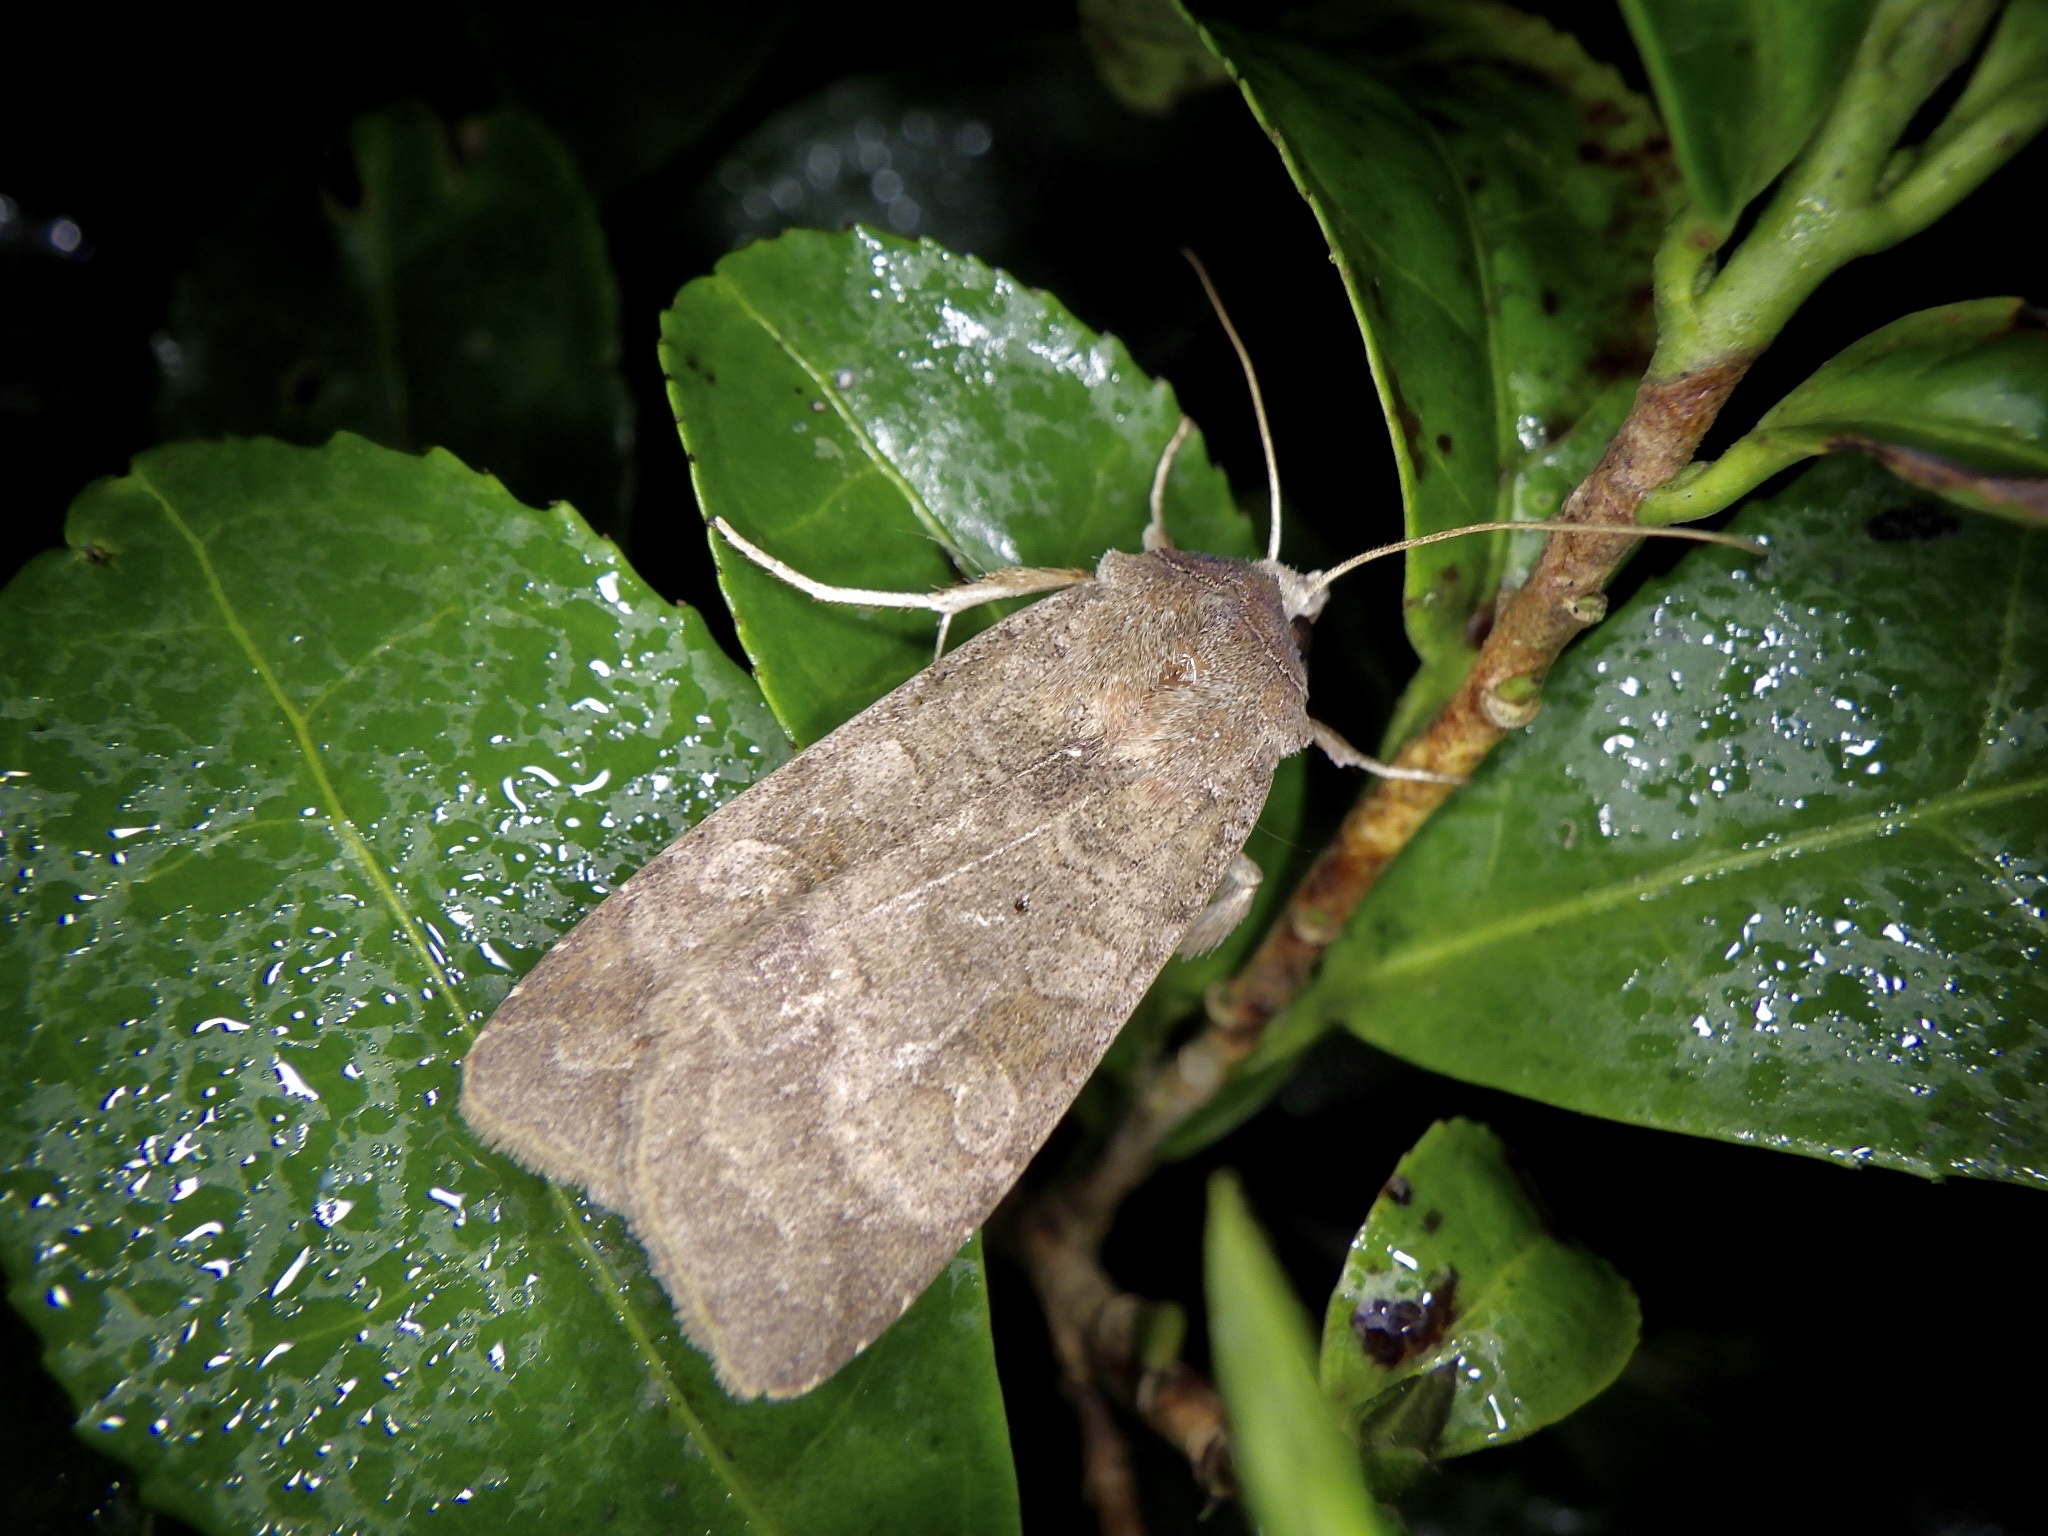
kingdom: Animalia
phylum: Arthropoda
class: Insecta
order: Lepidoptera
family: Noctuidae
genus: Diarsia
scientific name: Diarsia deparca
